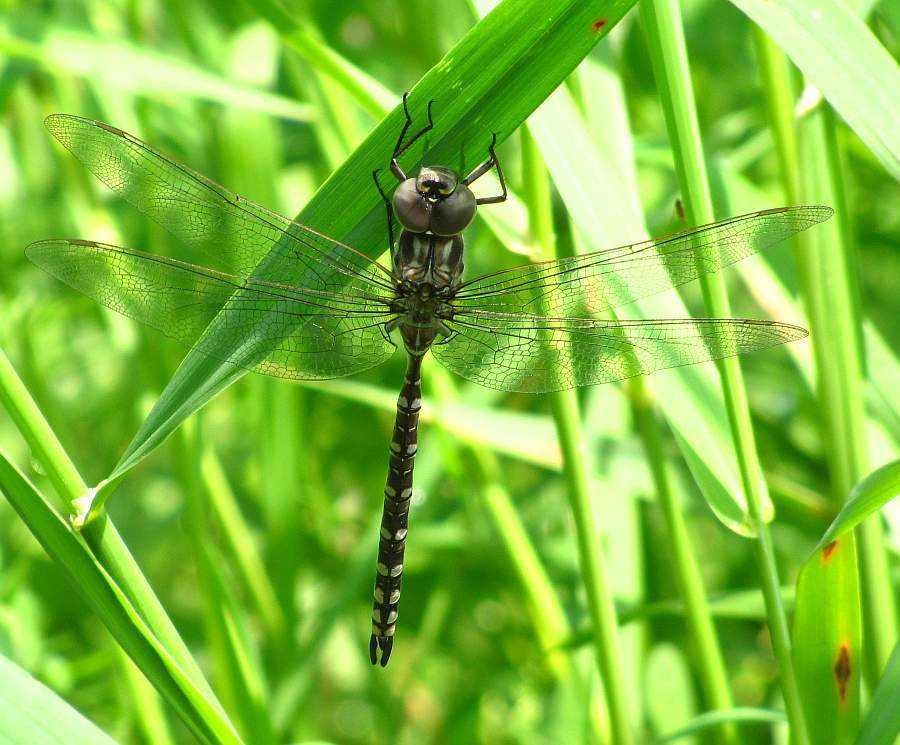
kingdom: Animalia
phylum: Arthropoda
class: Insecta
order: Odonata
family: Aeshnidae
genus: Aeshna
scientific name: Aeshna canadensis
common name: Canada darner
